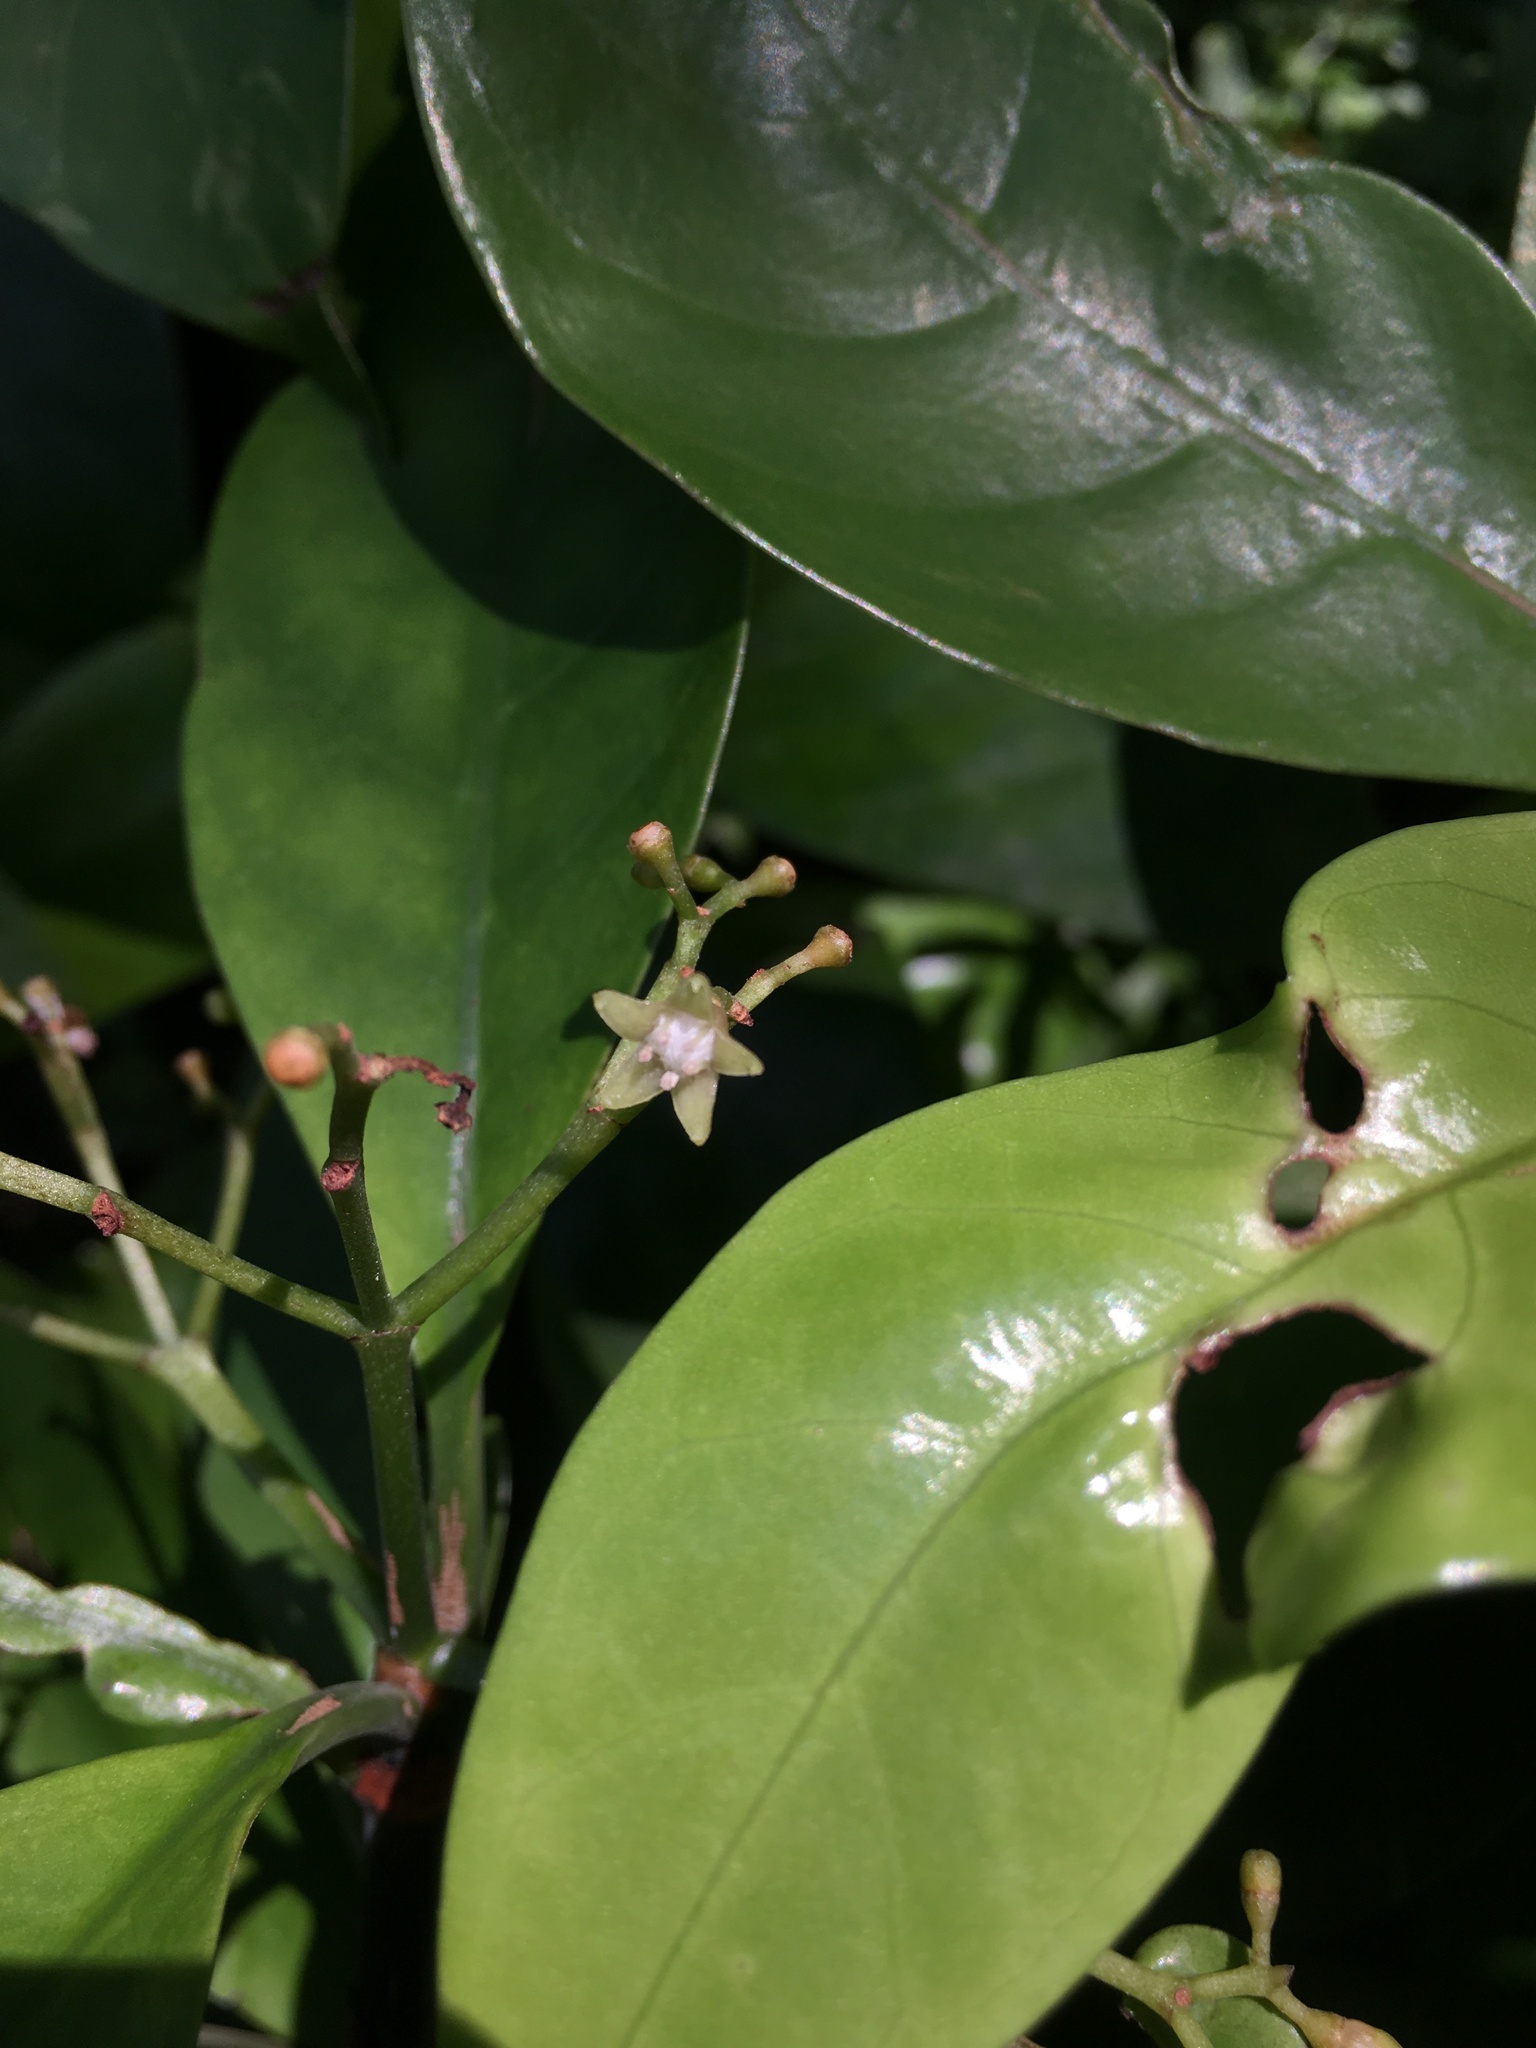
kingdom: Plantae
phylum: Tracheophyta
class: Magnoliopsida
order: Gentianales
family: Rubiaceae
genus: Psychotria
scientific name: Psychotria asiatica
